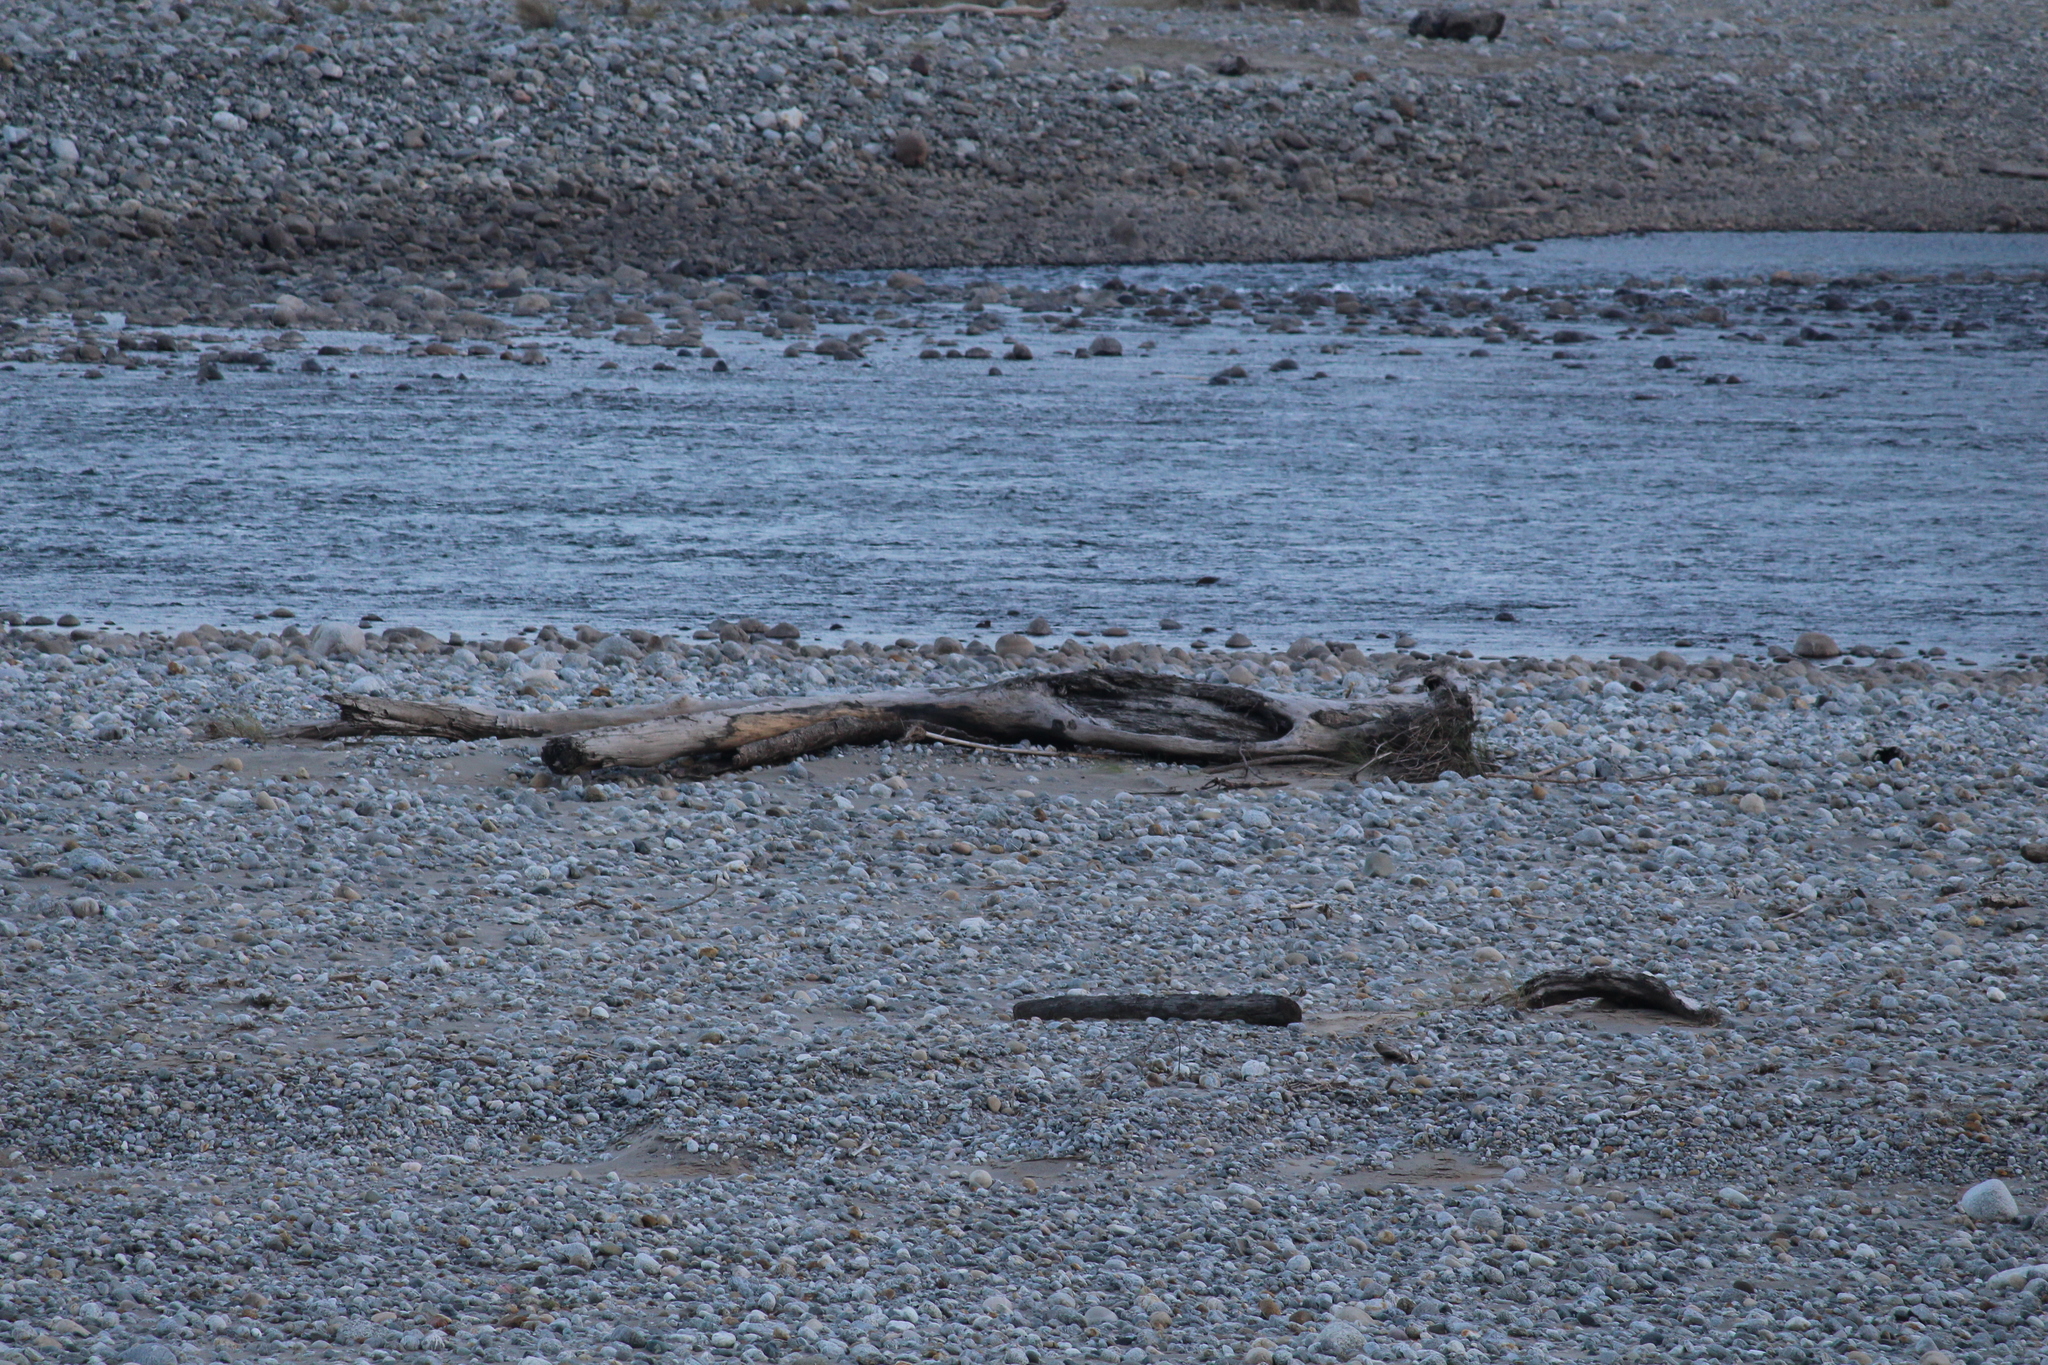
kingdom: Animalia
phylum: Chordata
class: Mammalia
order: Carnivora
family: Mustelidae
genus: Amblonyx
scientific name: Amblonyx cinereus
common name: Oriental small-clawed otter
